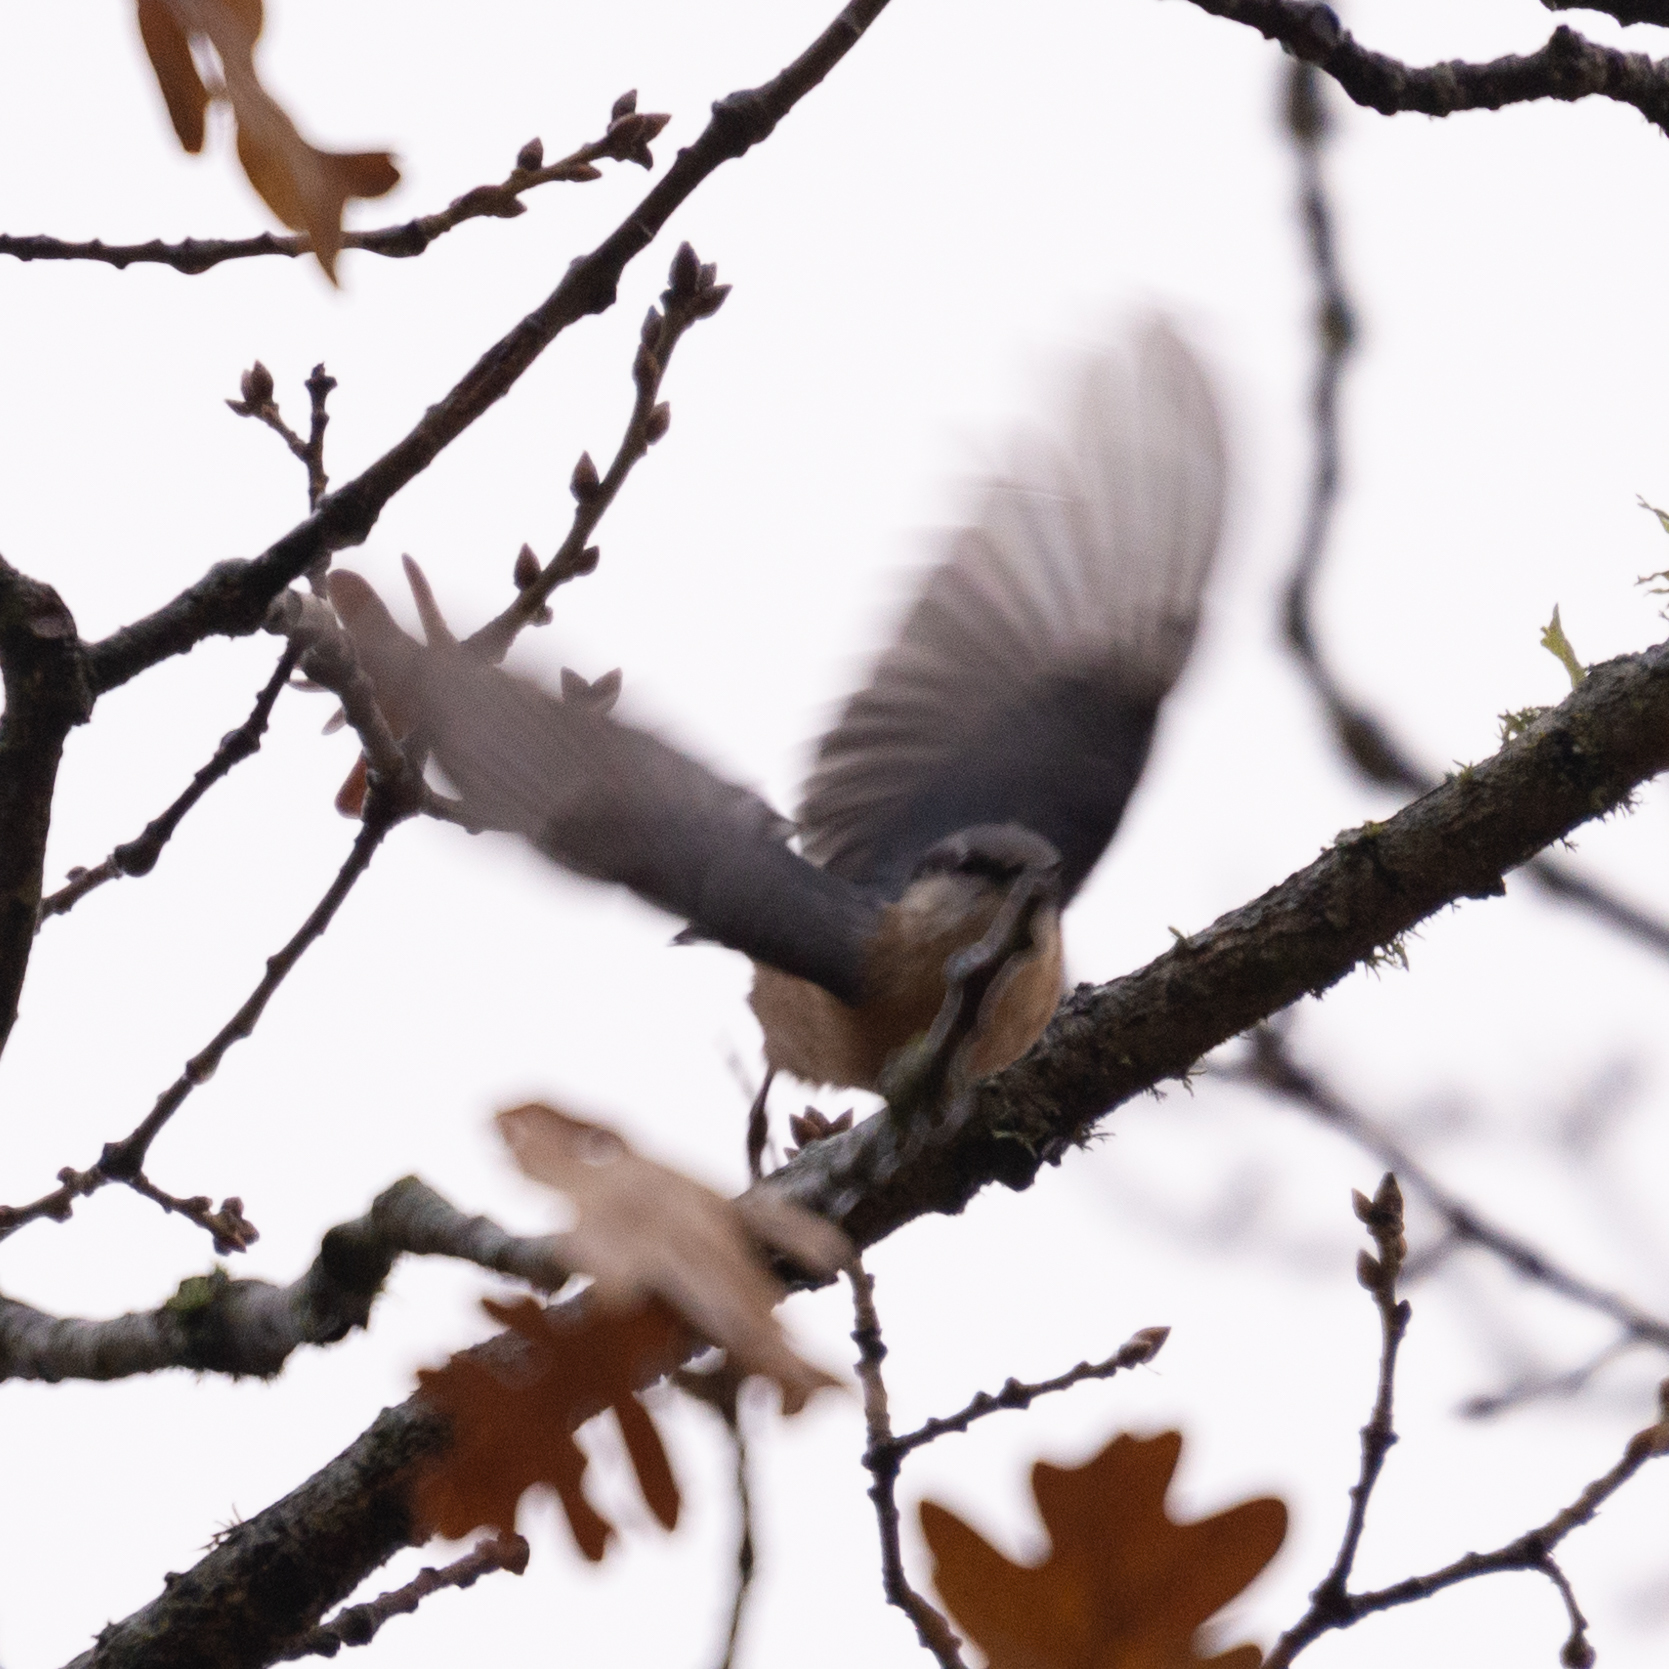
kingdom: Animalia
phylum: Chordata
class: Aves
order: Passeriformes
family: Sittidae
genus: Sitta
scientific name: Sitta europaea
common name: Eurasian nuthatch
